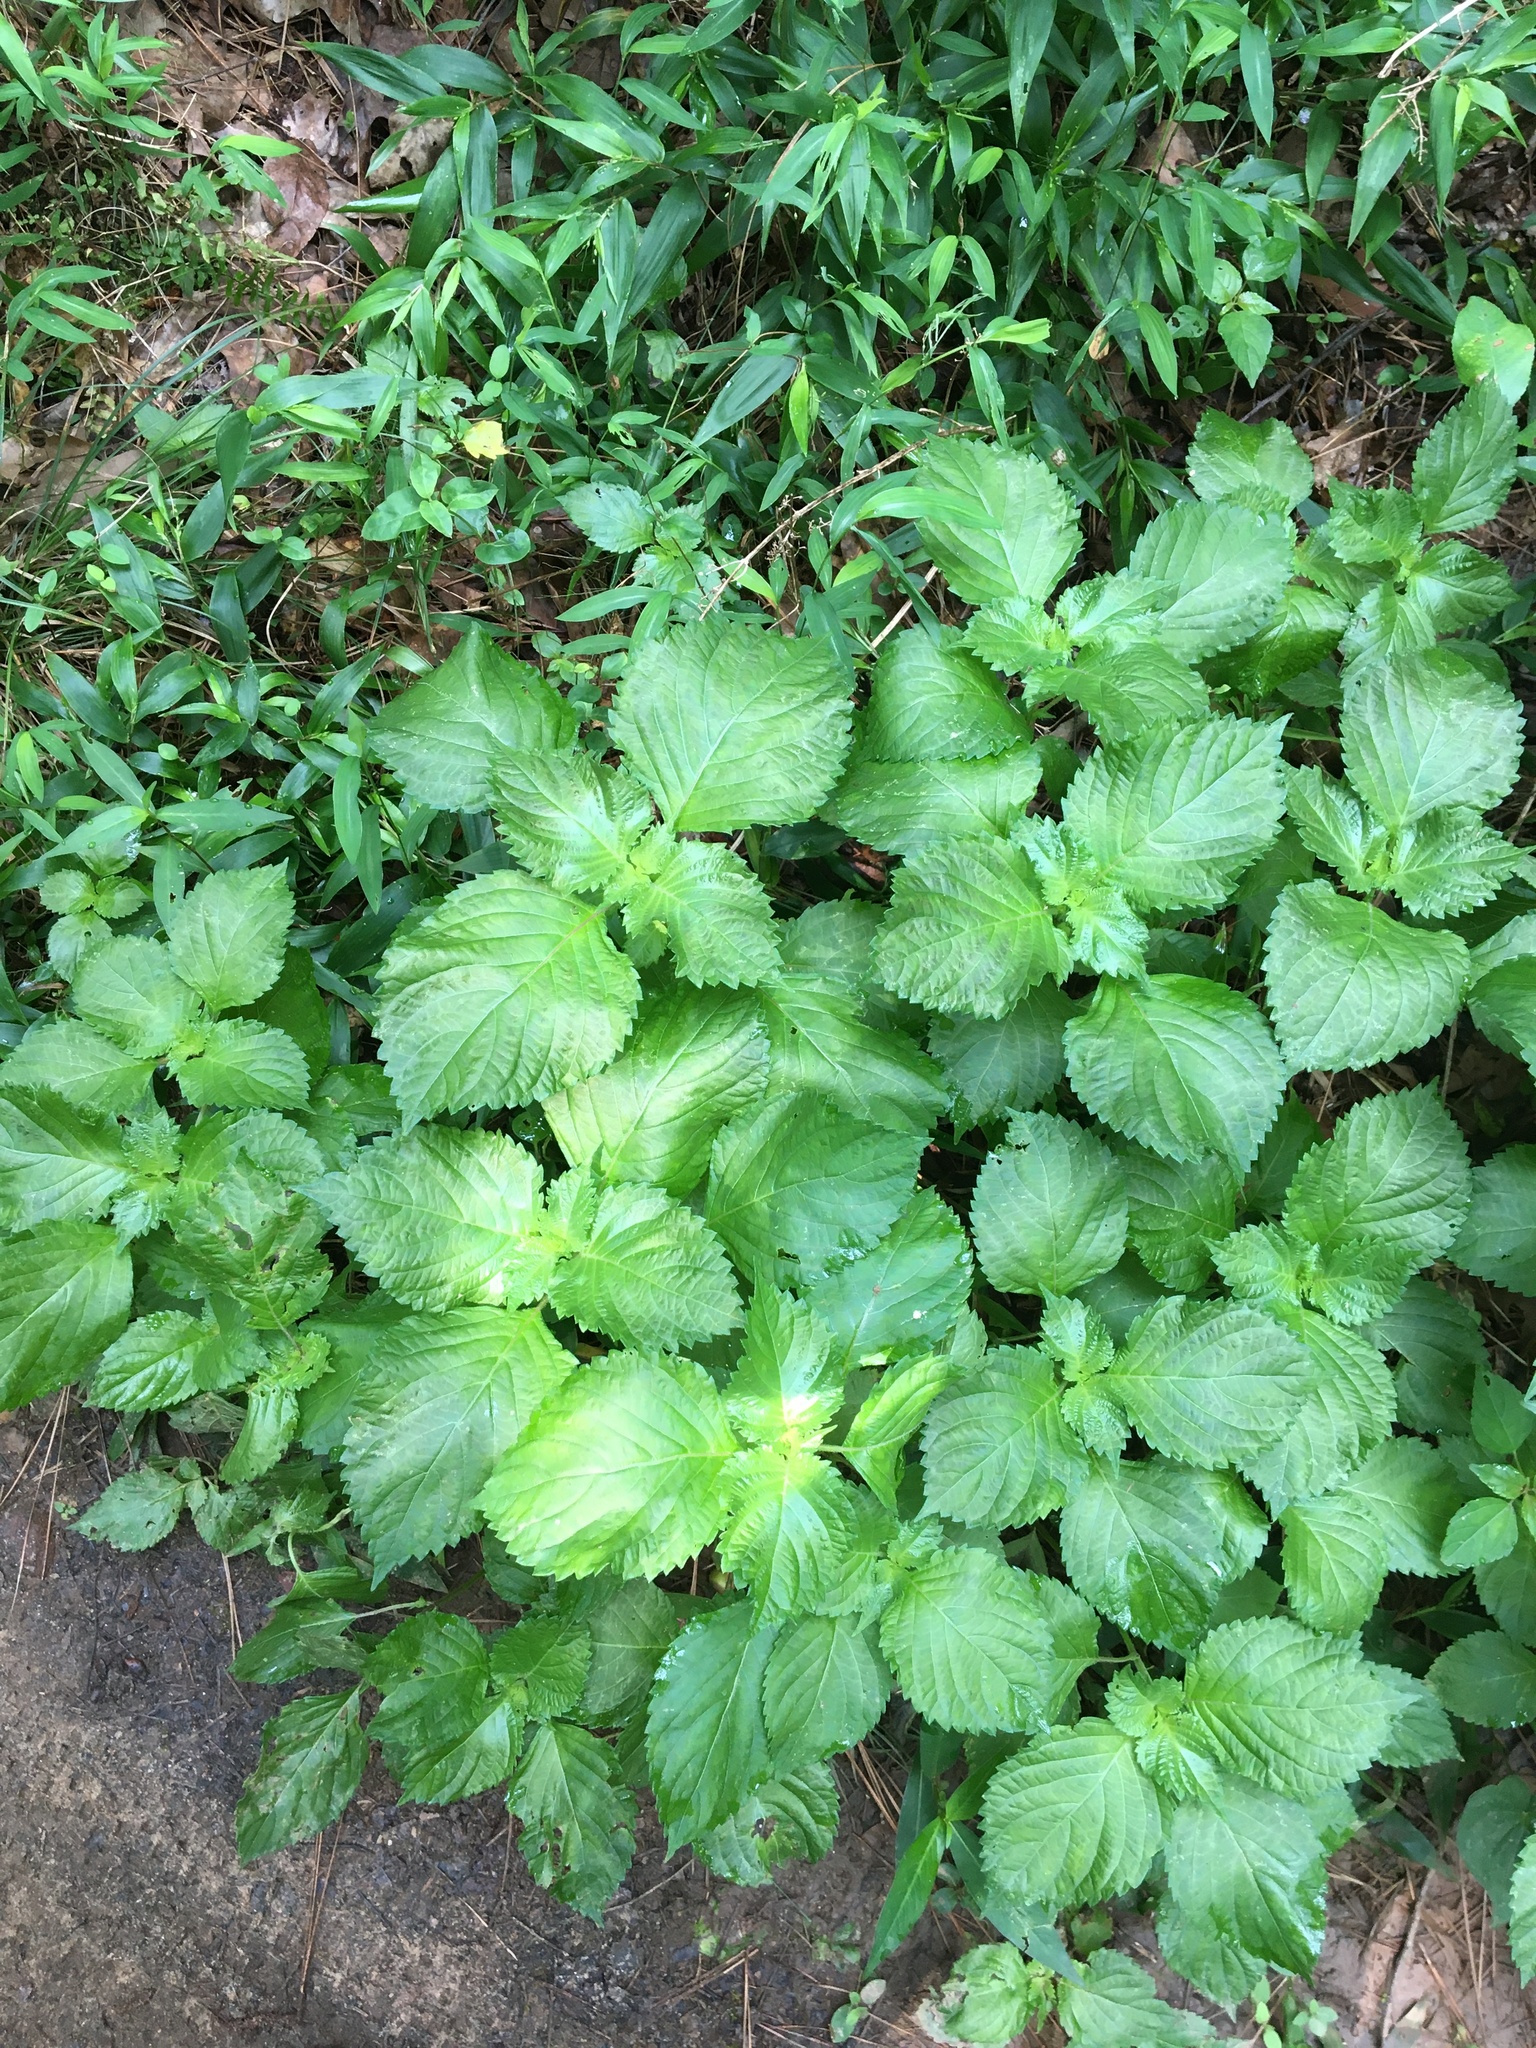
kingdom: Plantae
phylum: Tracheophyta
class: Magnoliopsida
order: Lamiales
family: Lamiaceae
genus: Perilla
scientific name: Perilla frutescens
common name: Perilla
